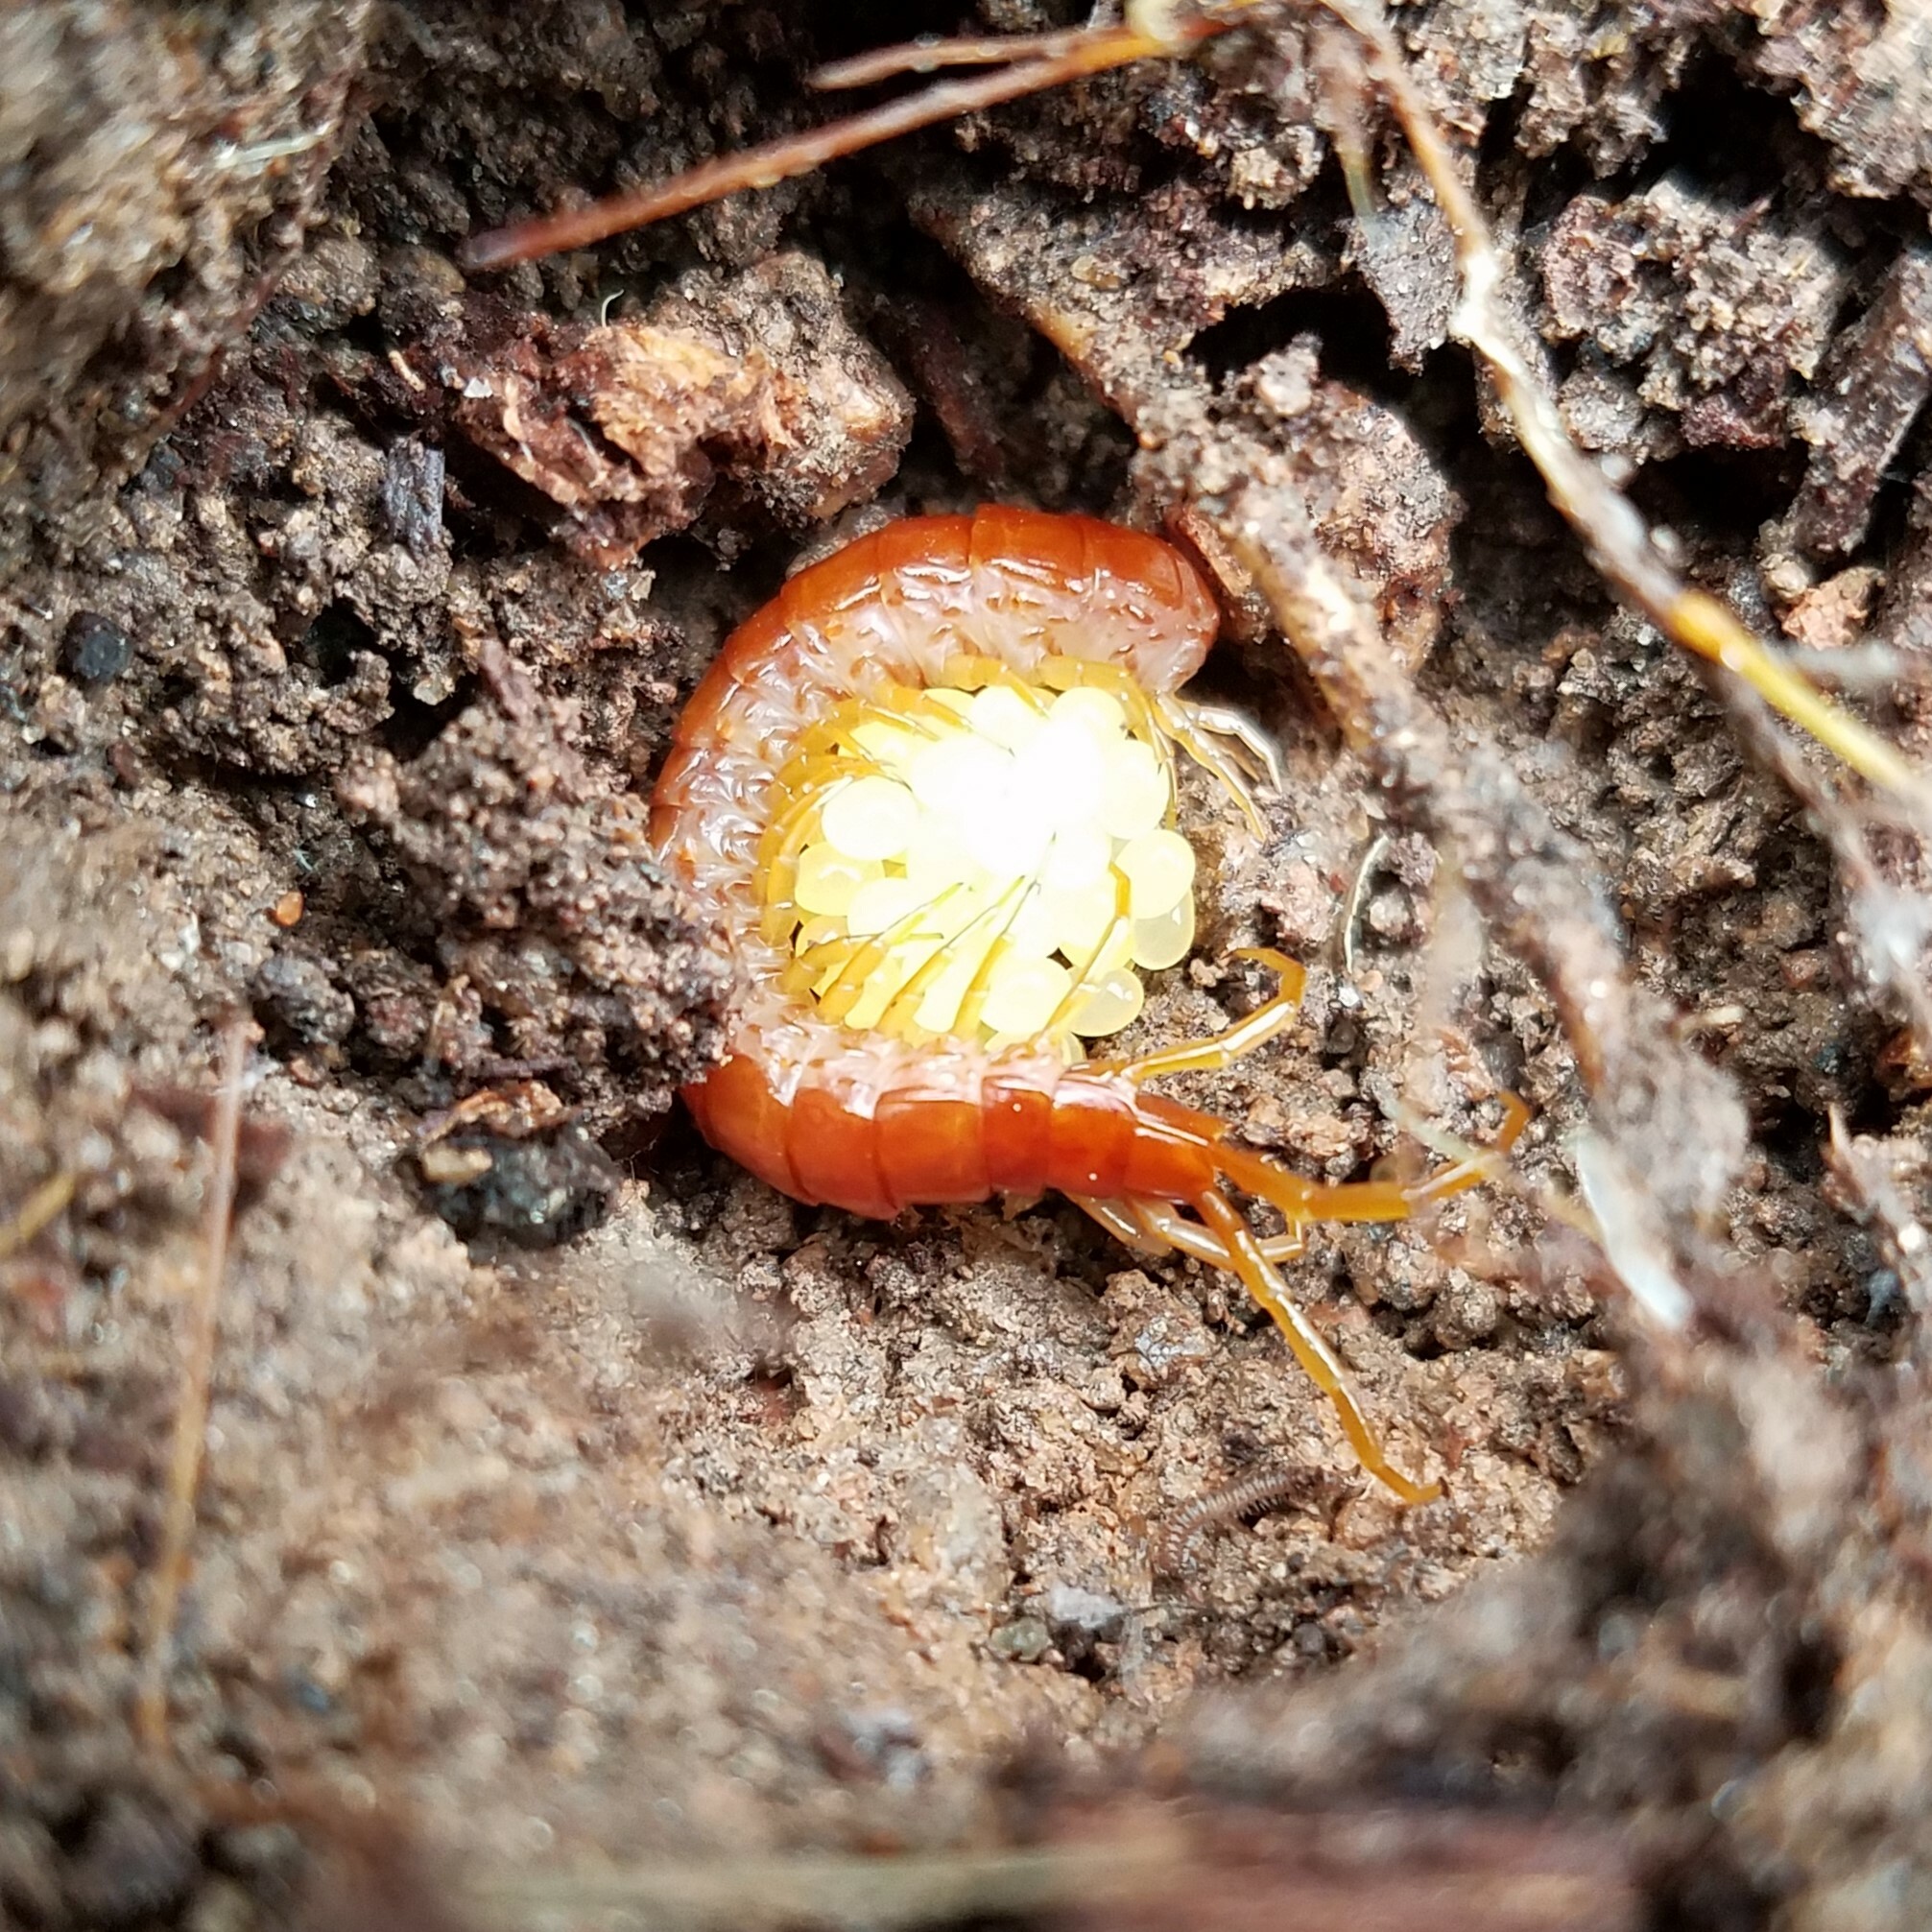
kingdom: Animalia
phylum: Arthropoda
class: Chilopoda
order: Scolopendromorpha
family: Scolopocryptopidae
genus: Scolopocryptops
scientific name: Scolopocryptops sexspinosus
